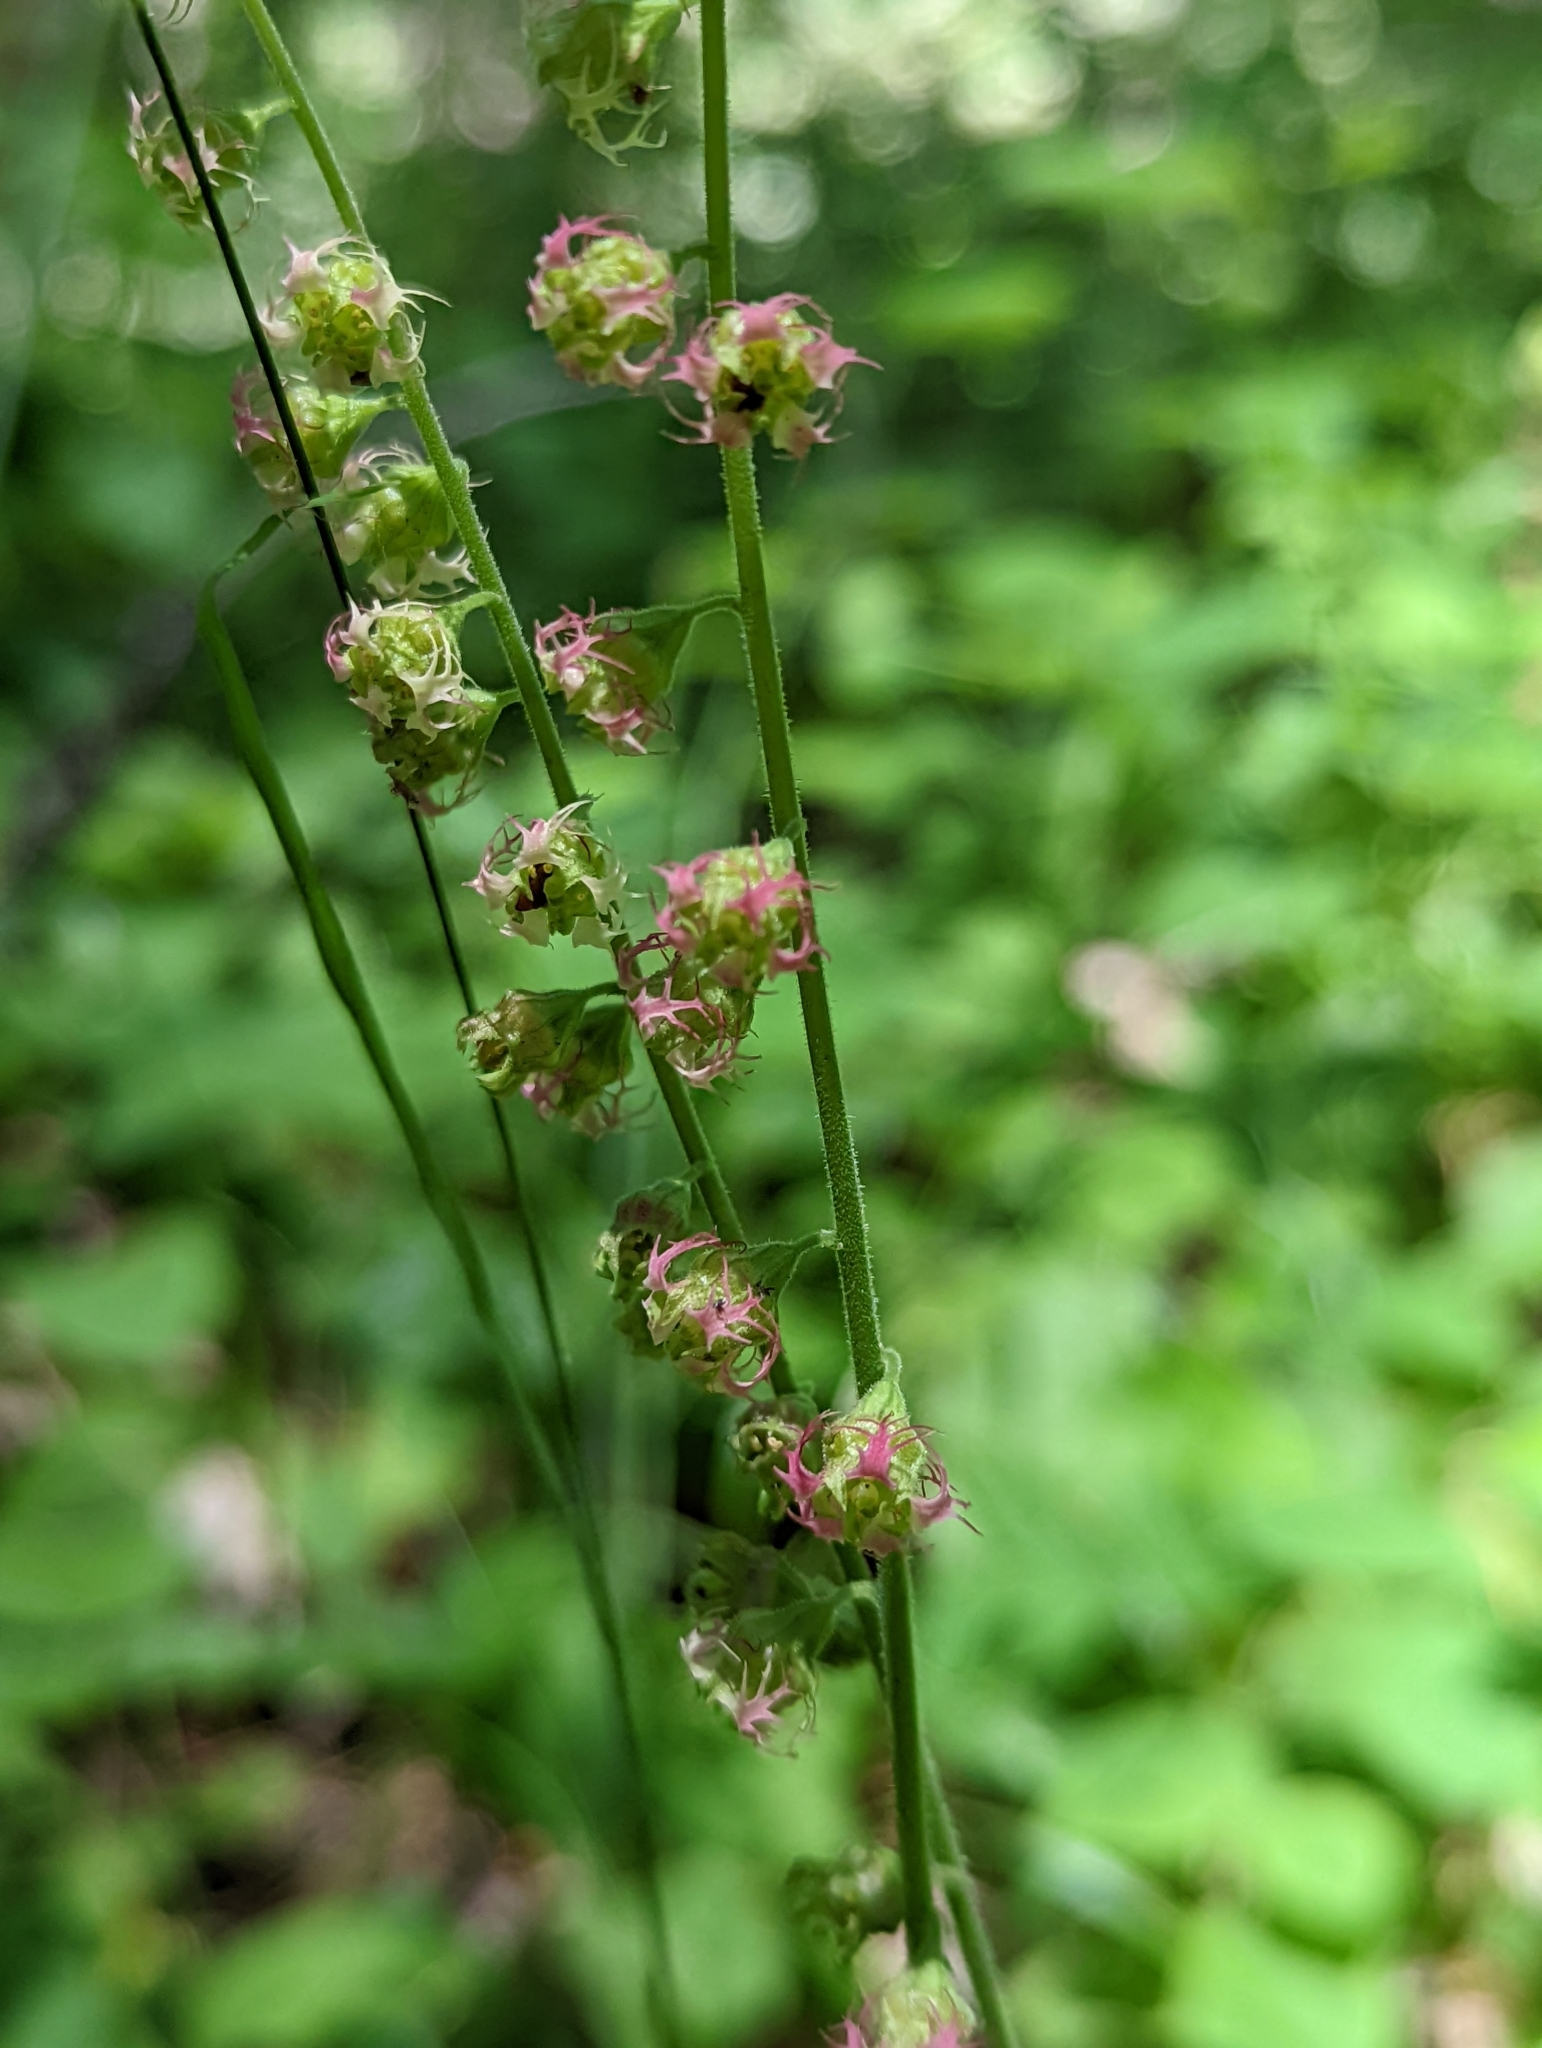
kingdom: Plantae
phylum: Tracheophyta
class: Magnoliopsida
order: Saxifragales
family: Saxifragaceae
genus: Tellima
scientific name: Tellima grandiflora
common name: Fringecups
